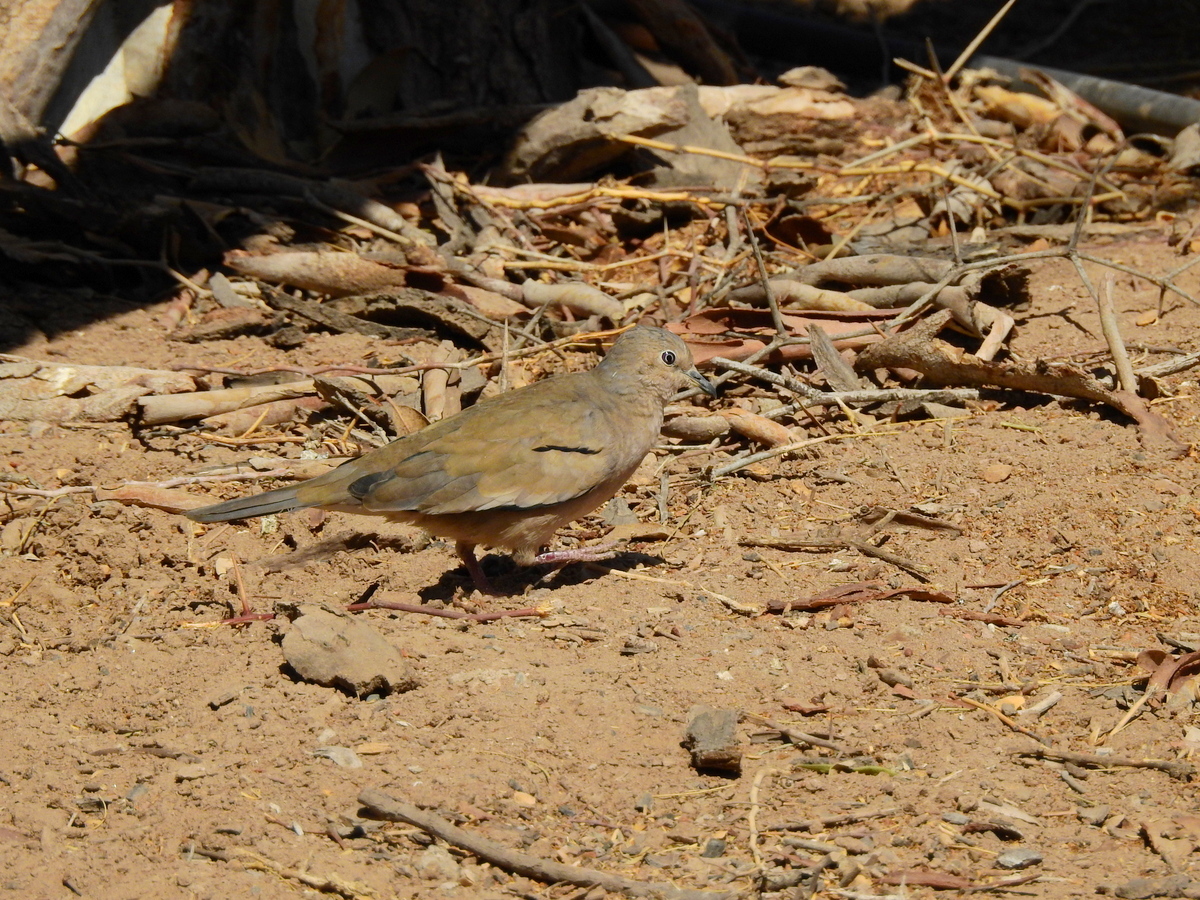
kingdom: Animalia
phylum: Chordata
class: Aves
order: Columbiformes
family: Columbidae
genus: Columbina
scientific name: Columbina picui
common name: Picui ground dove
